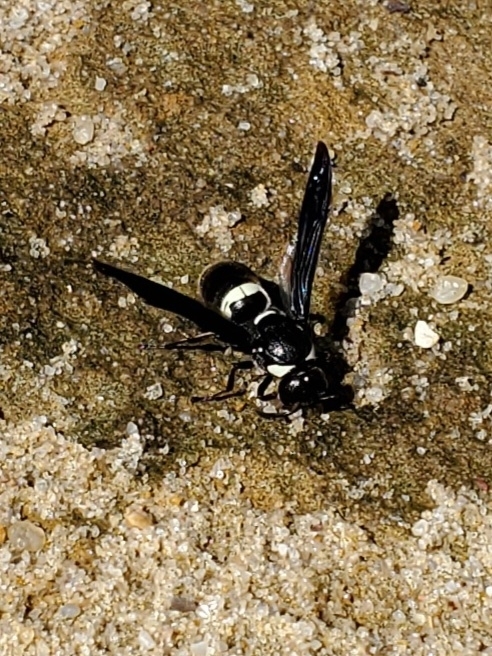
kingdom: Animalia
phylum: Arthropoda
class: Insecta
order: Hymenoptera
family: Eumenidae
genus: Monobia
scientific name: Monobia quadridens
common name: Four-toothed mason wasp
